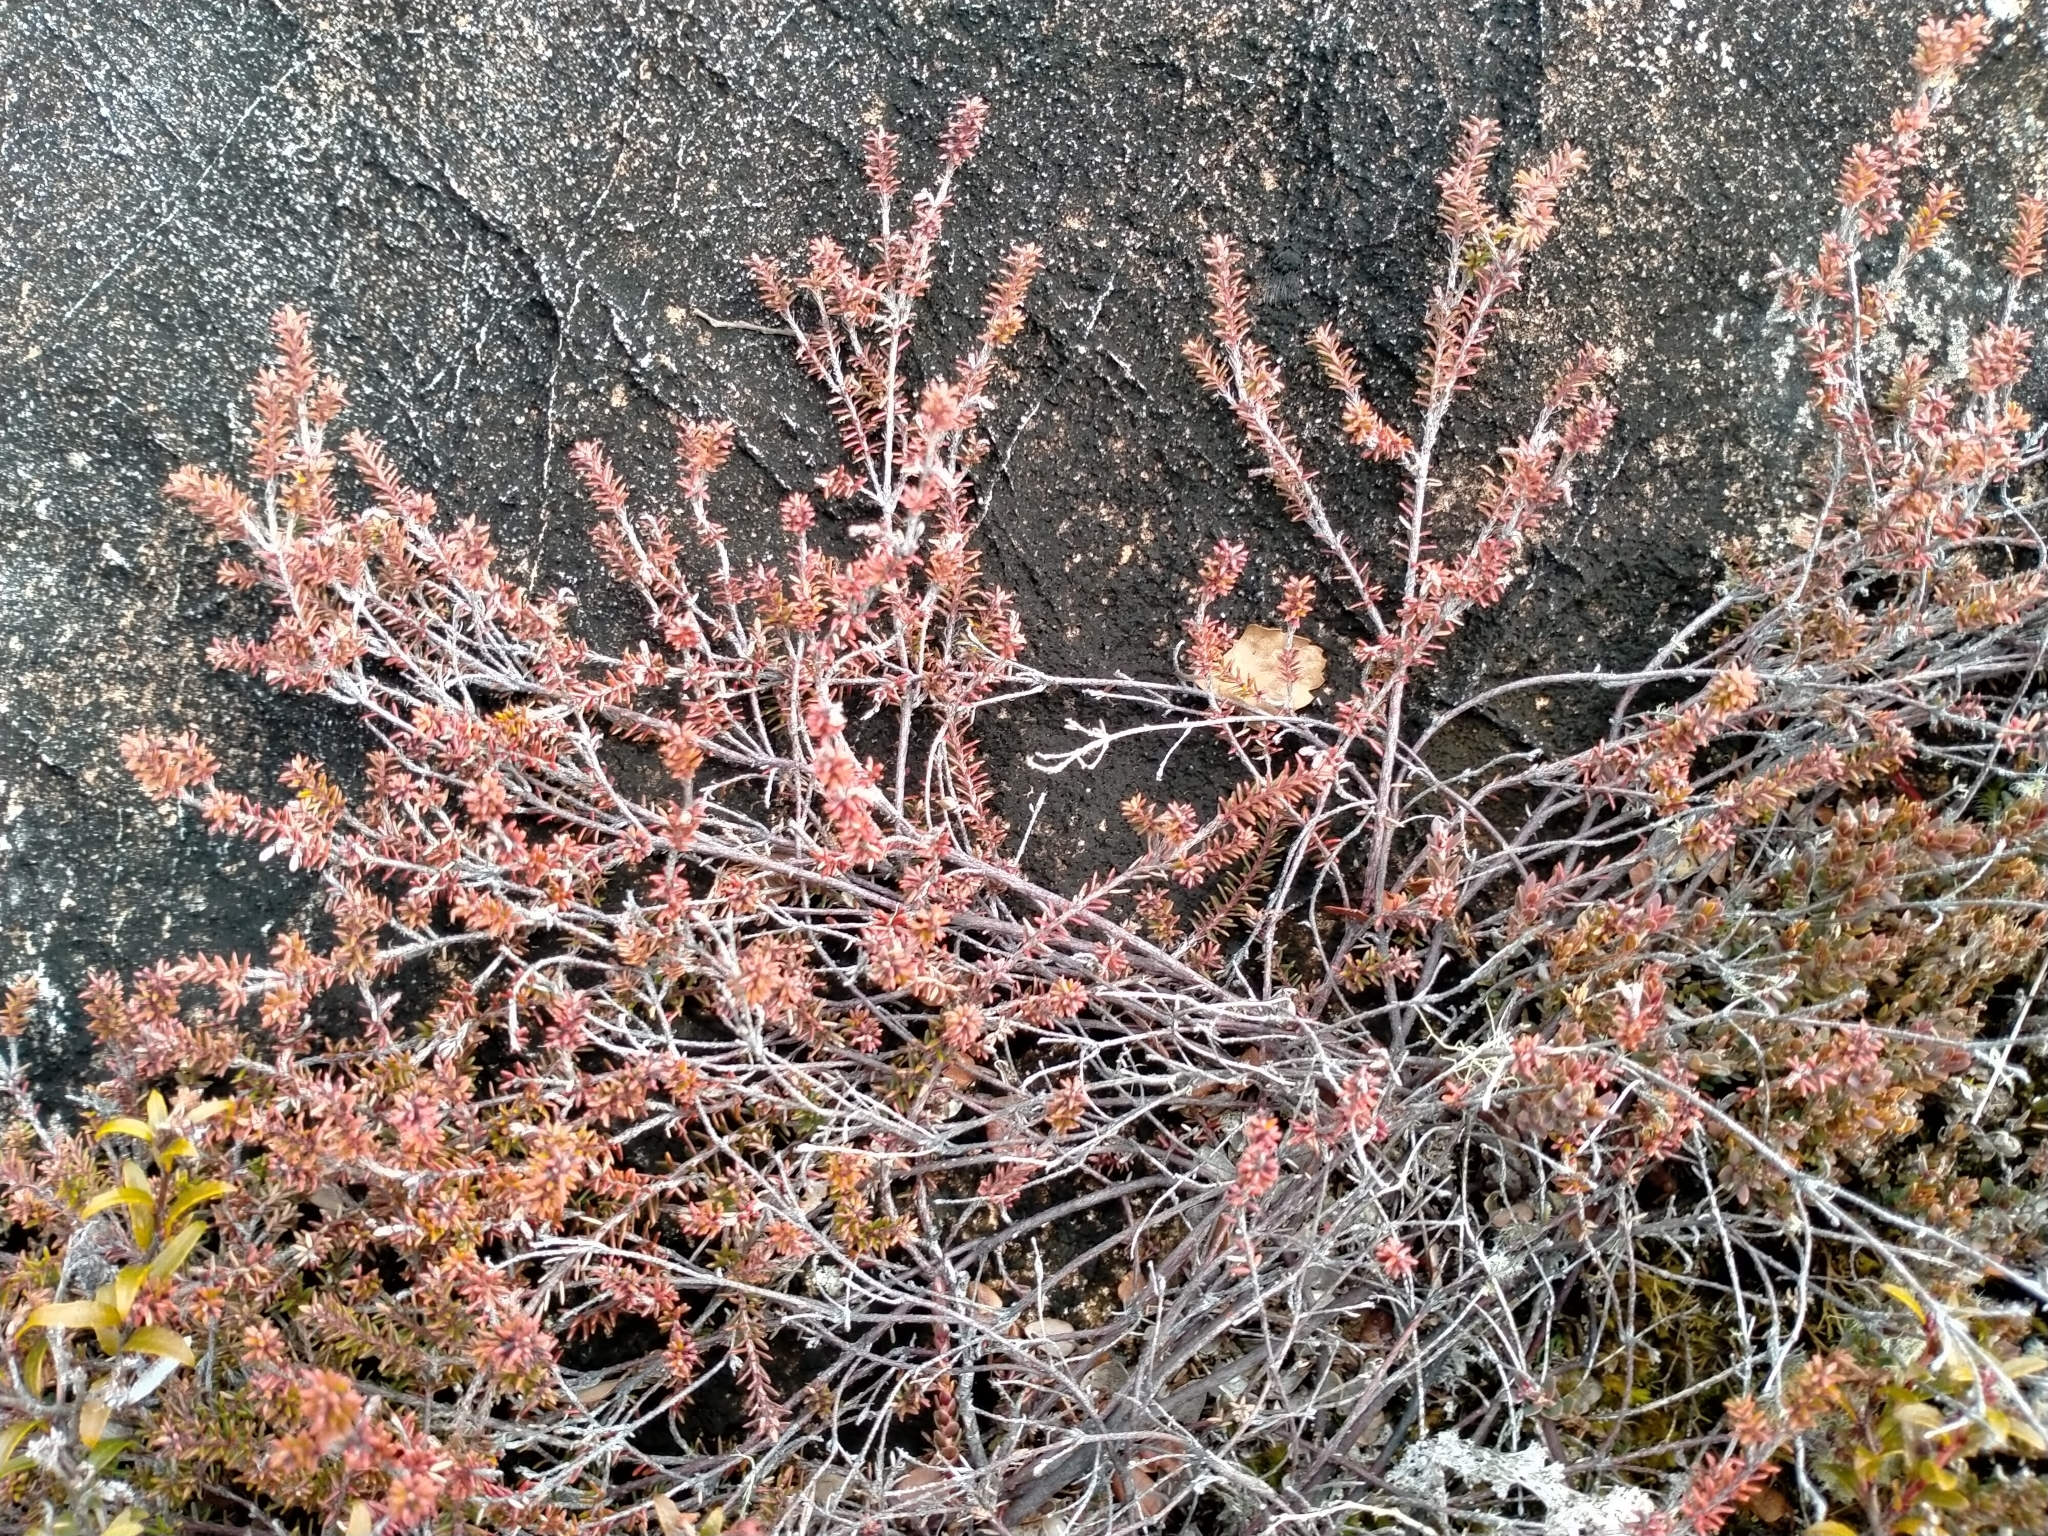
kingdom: Plantae
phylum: Tracheophyta
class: Magnoliopsida
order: Ericales
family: Ericaceae
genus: Androstoma
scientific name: Androstoma empetrifolia
